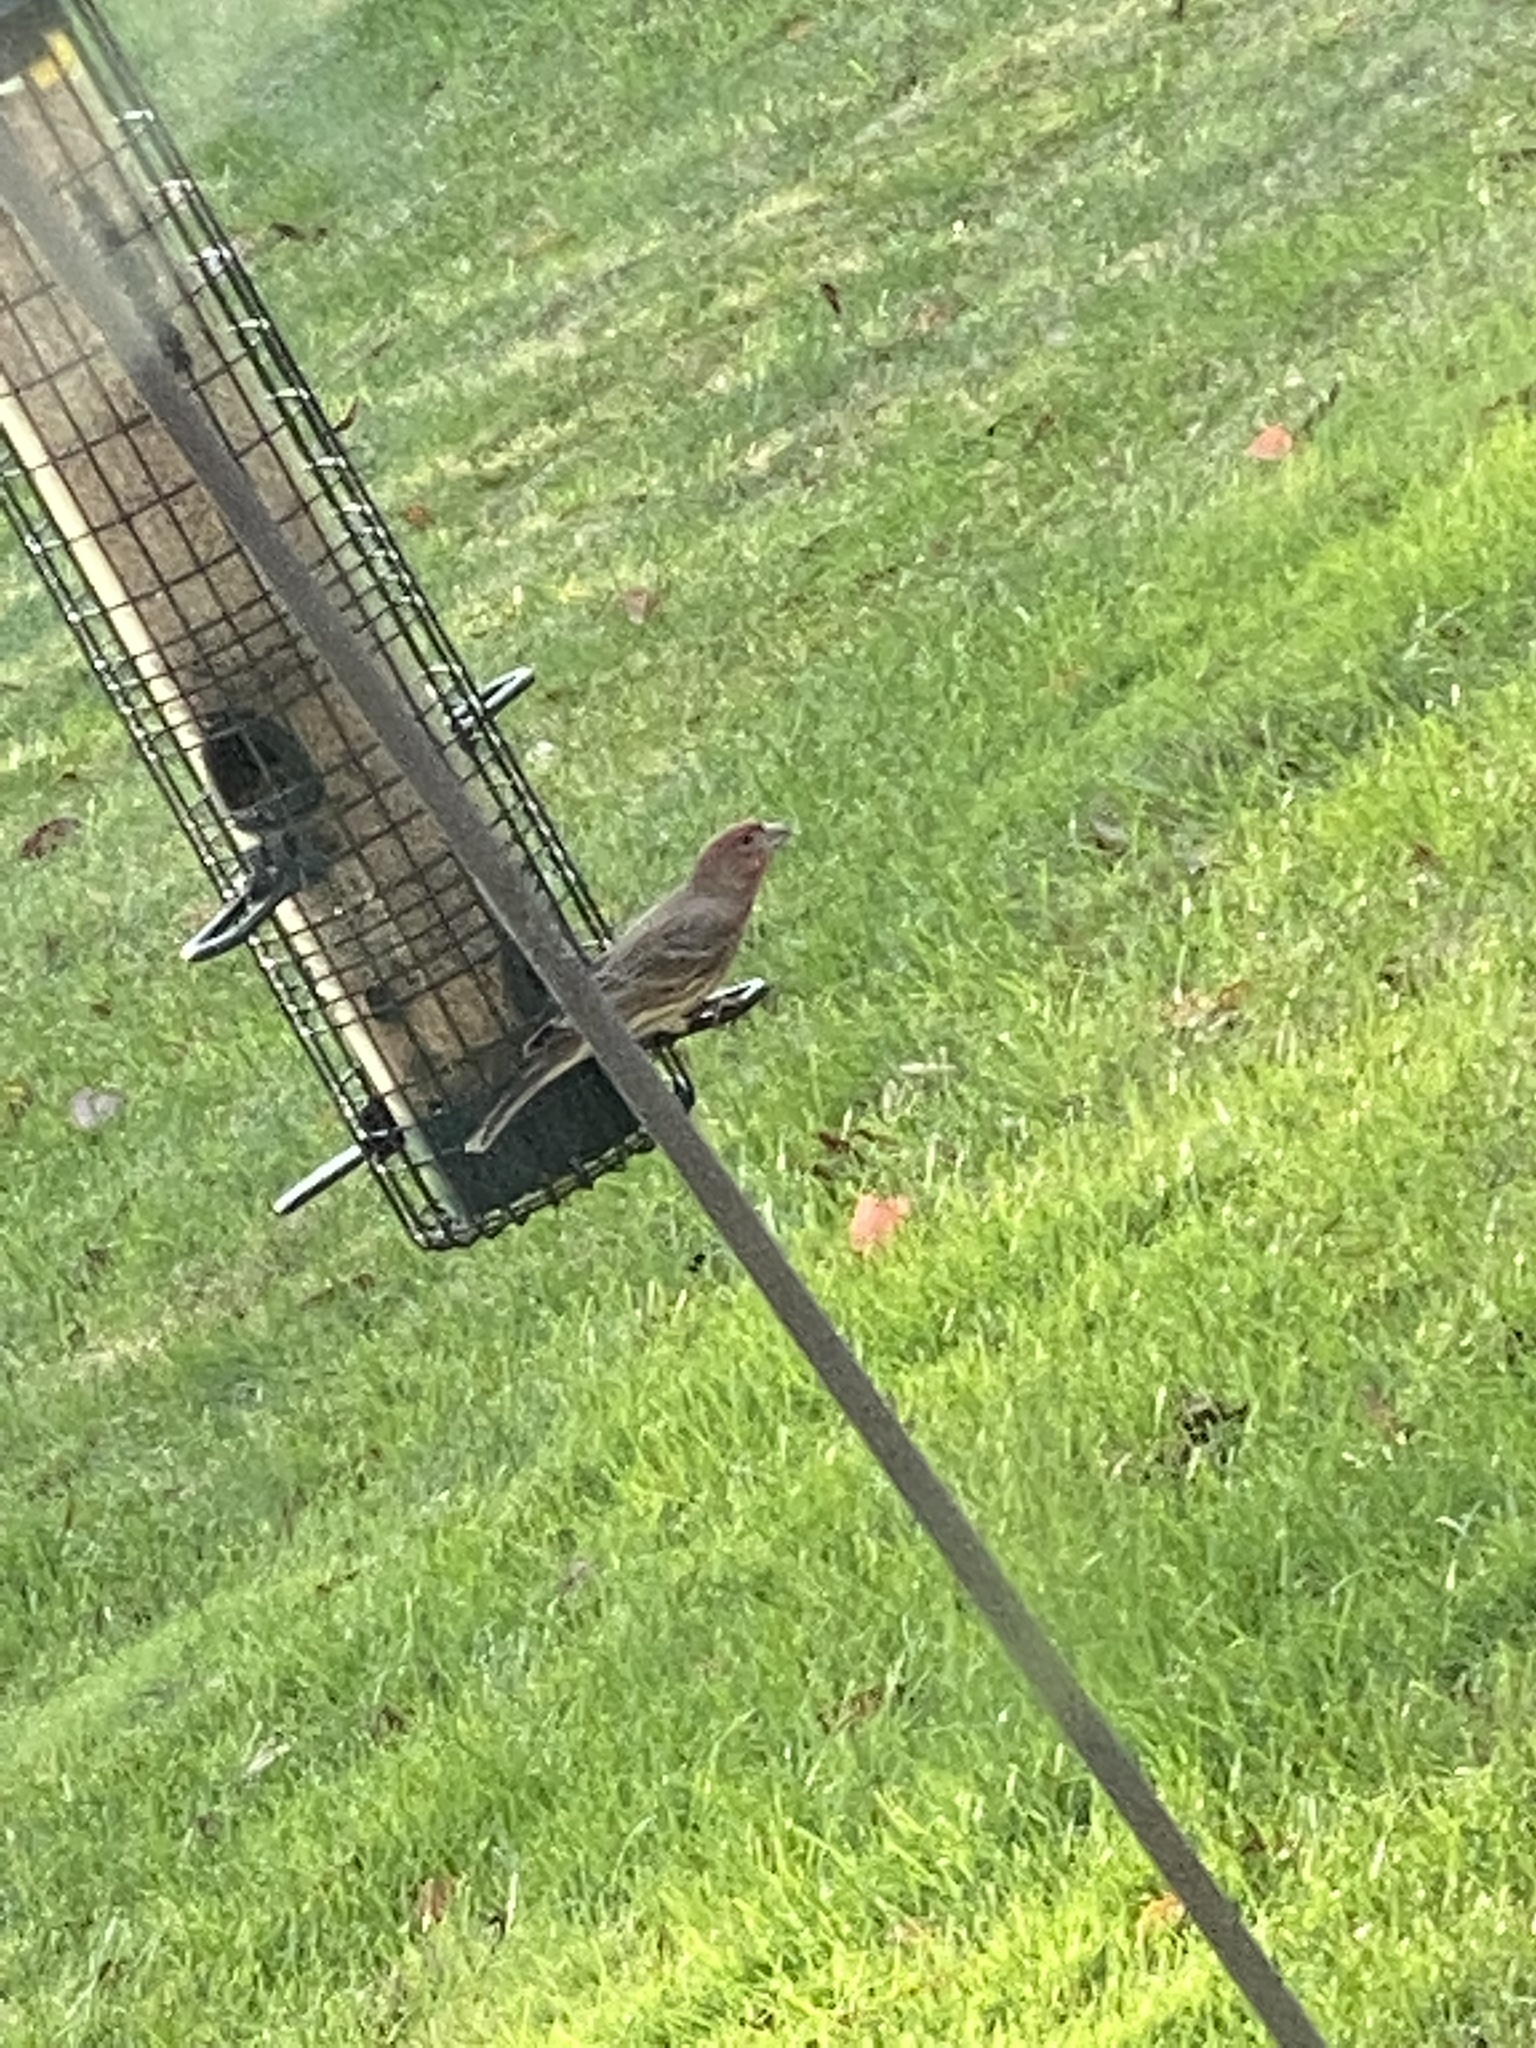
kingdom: Animalia
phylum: Chordata
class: Aves
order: Passeriformes
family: Fringillidae
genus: Haemorhous
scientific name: Haemorhous mexicanus
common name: House finch
